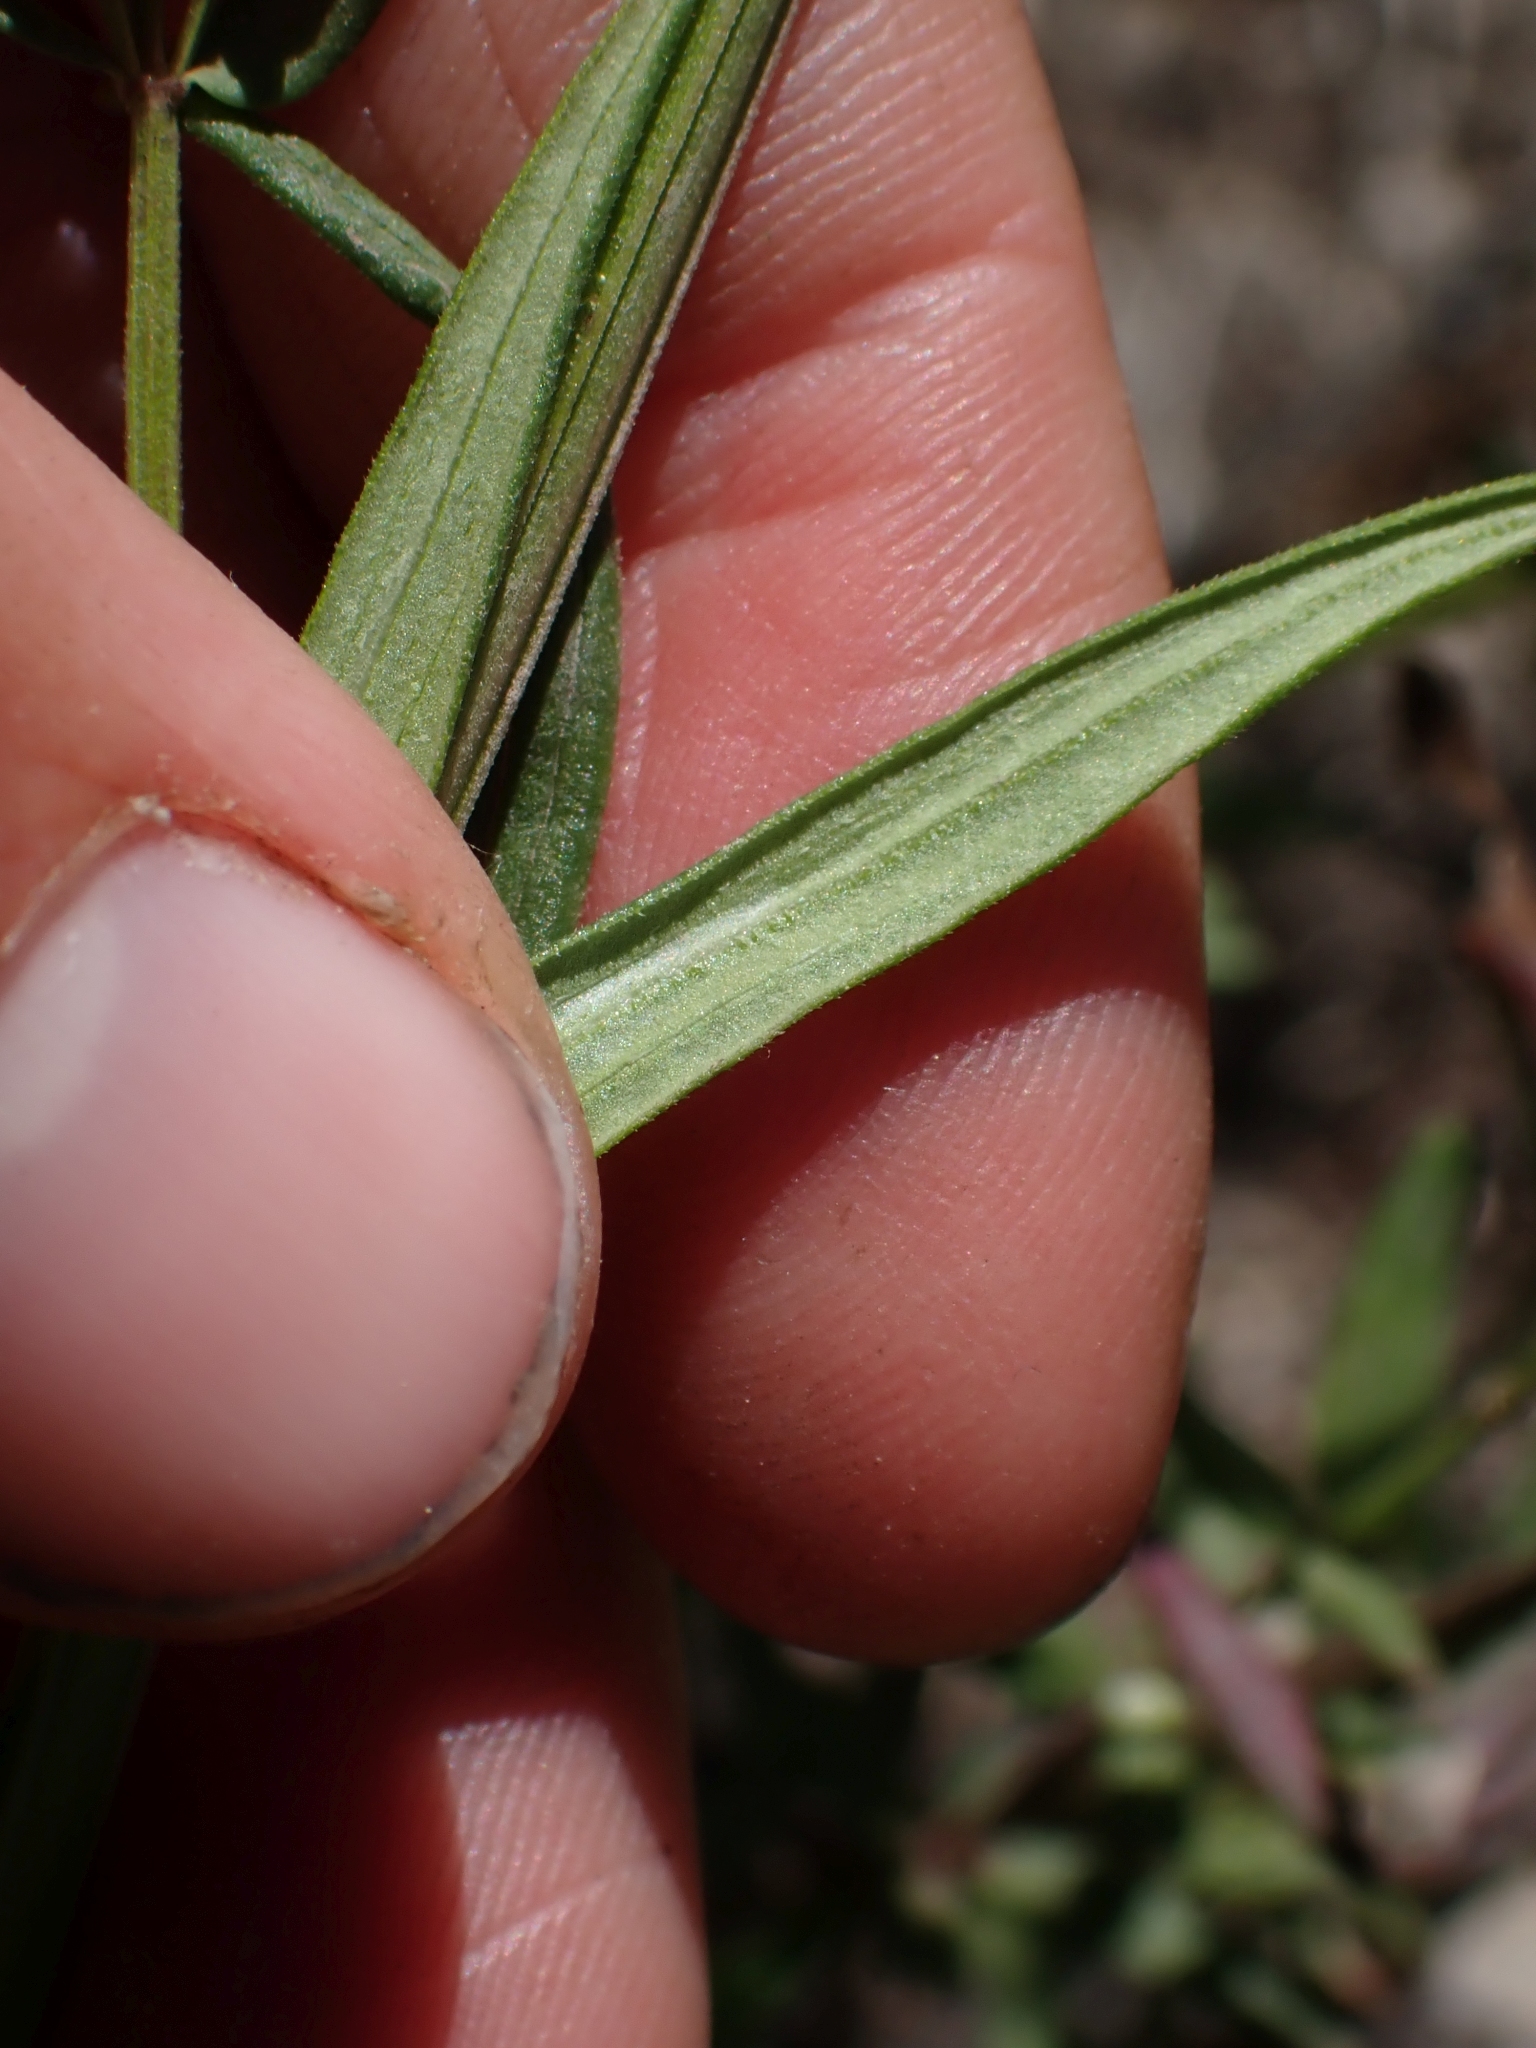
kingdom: Plantae
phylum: Tracheophyta
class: Magnoliopsida
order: Gentianales
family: Rubiaceae
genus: Galium
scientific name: Galium boreale
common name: Northern bedstraw
